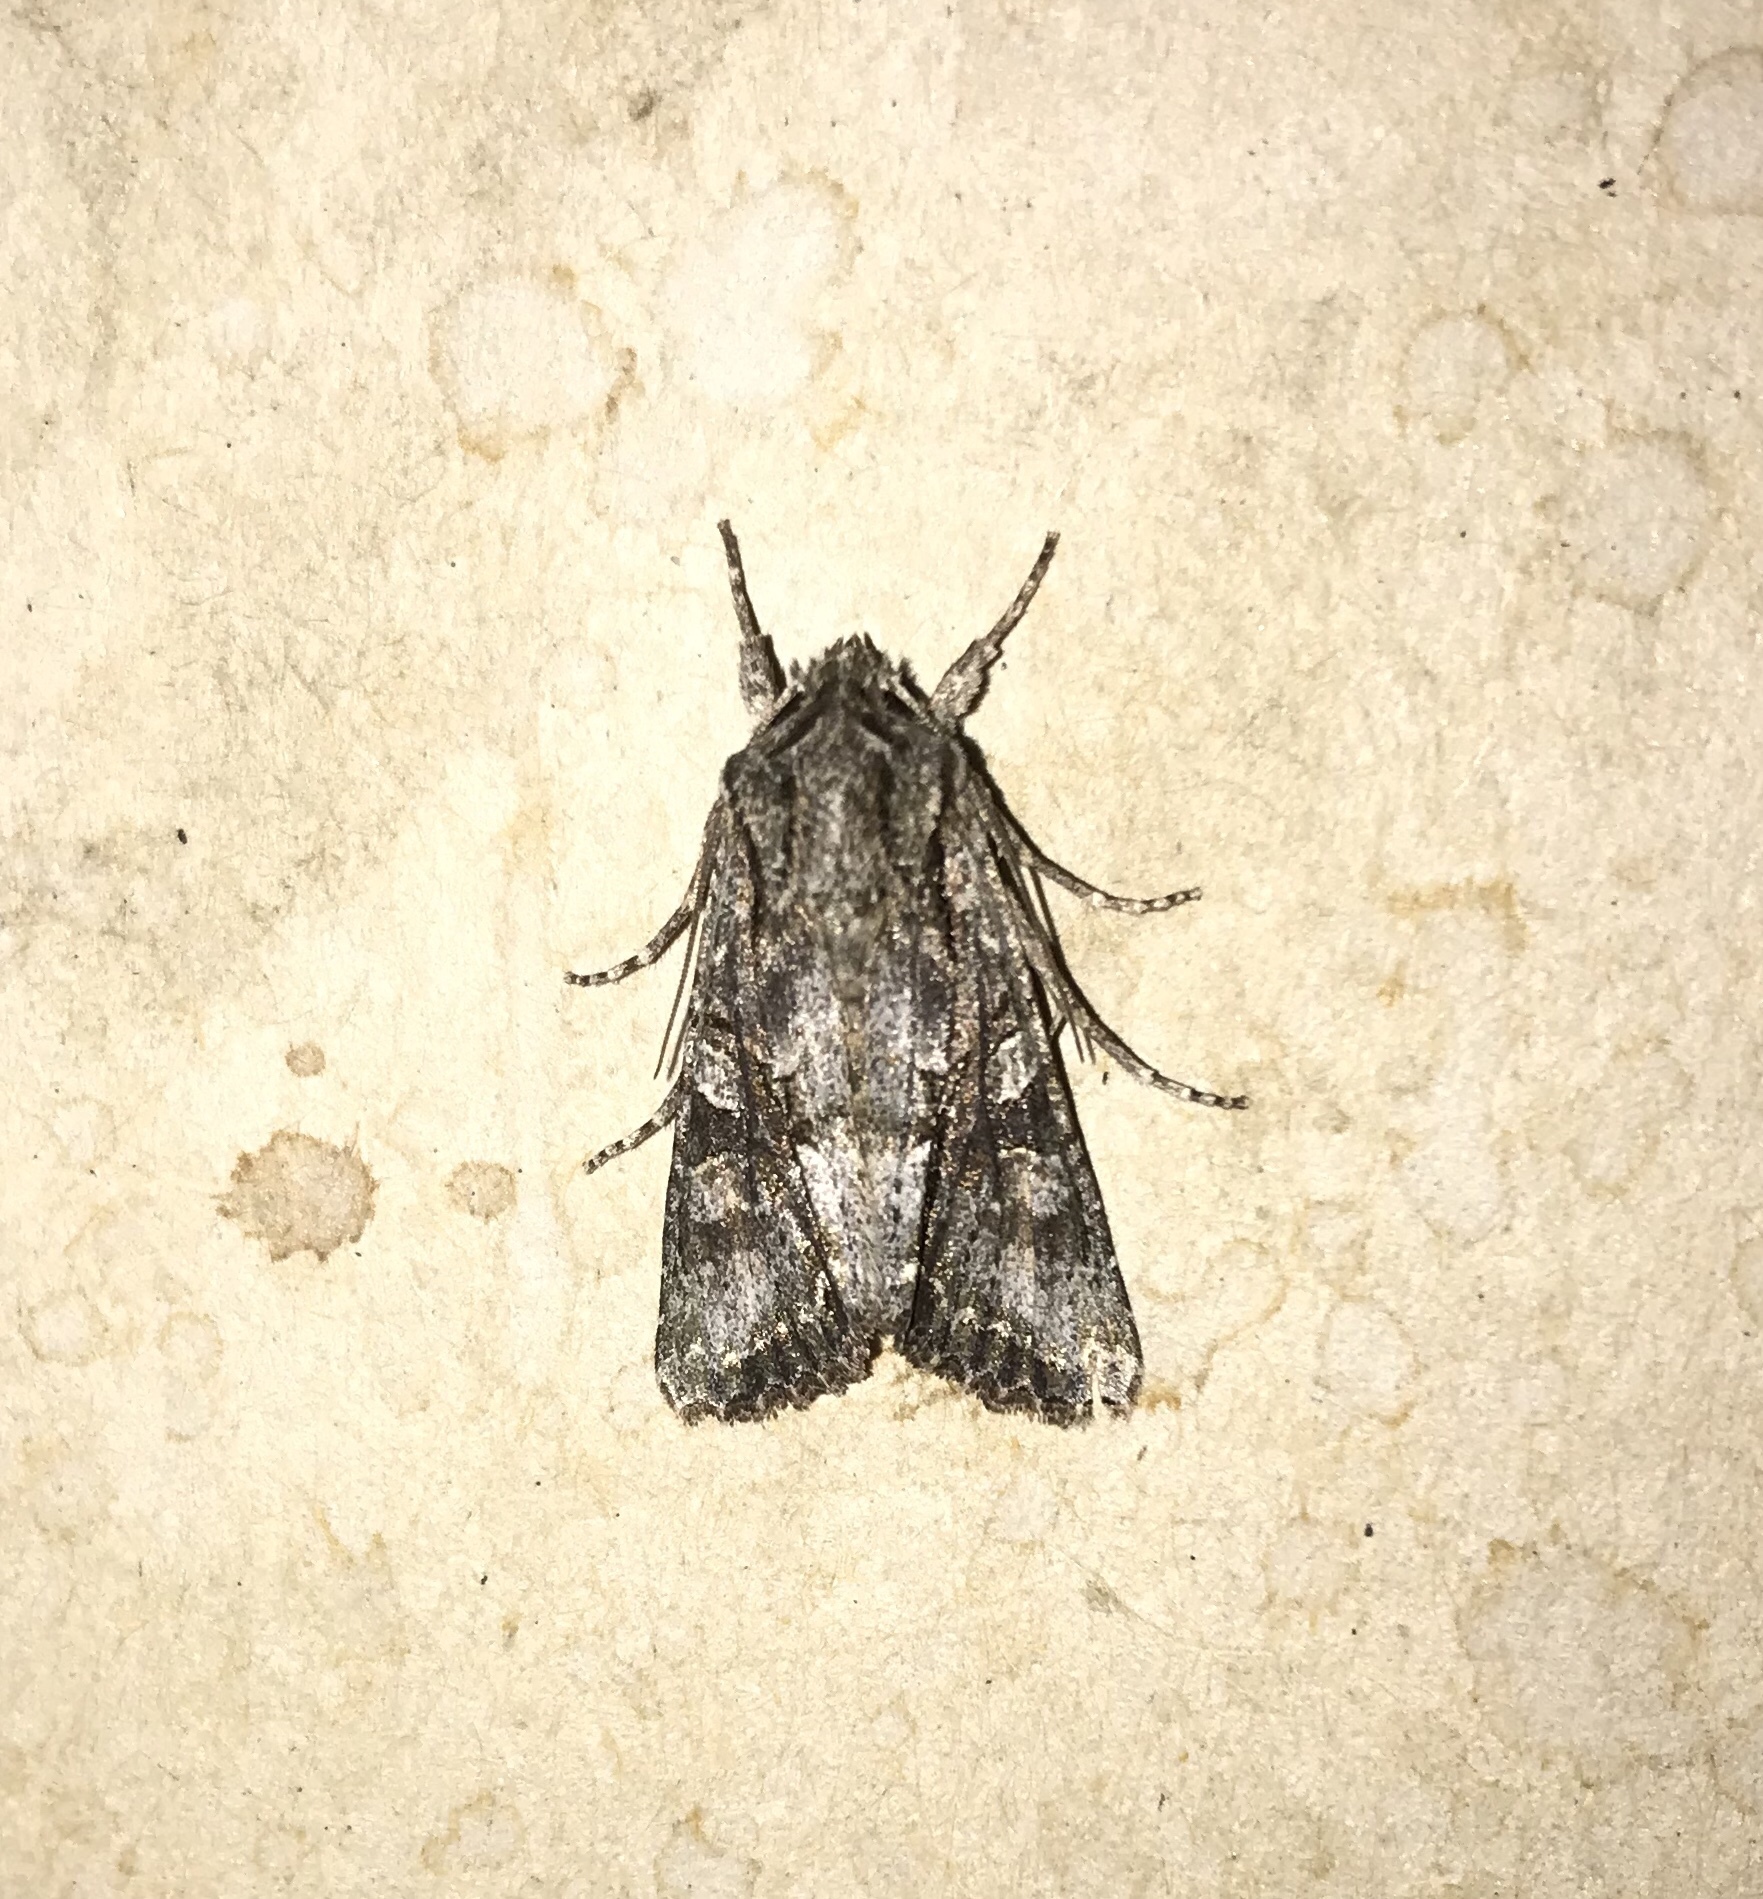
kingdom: Animalia
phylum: Arthropoda
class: Insecta
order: Lepidoptera
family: Noctuidae
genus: Ichneutica
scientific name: Ichneutica mutans
